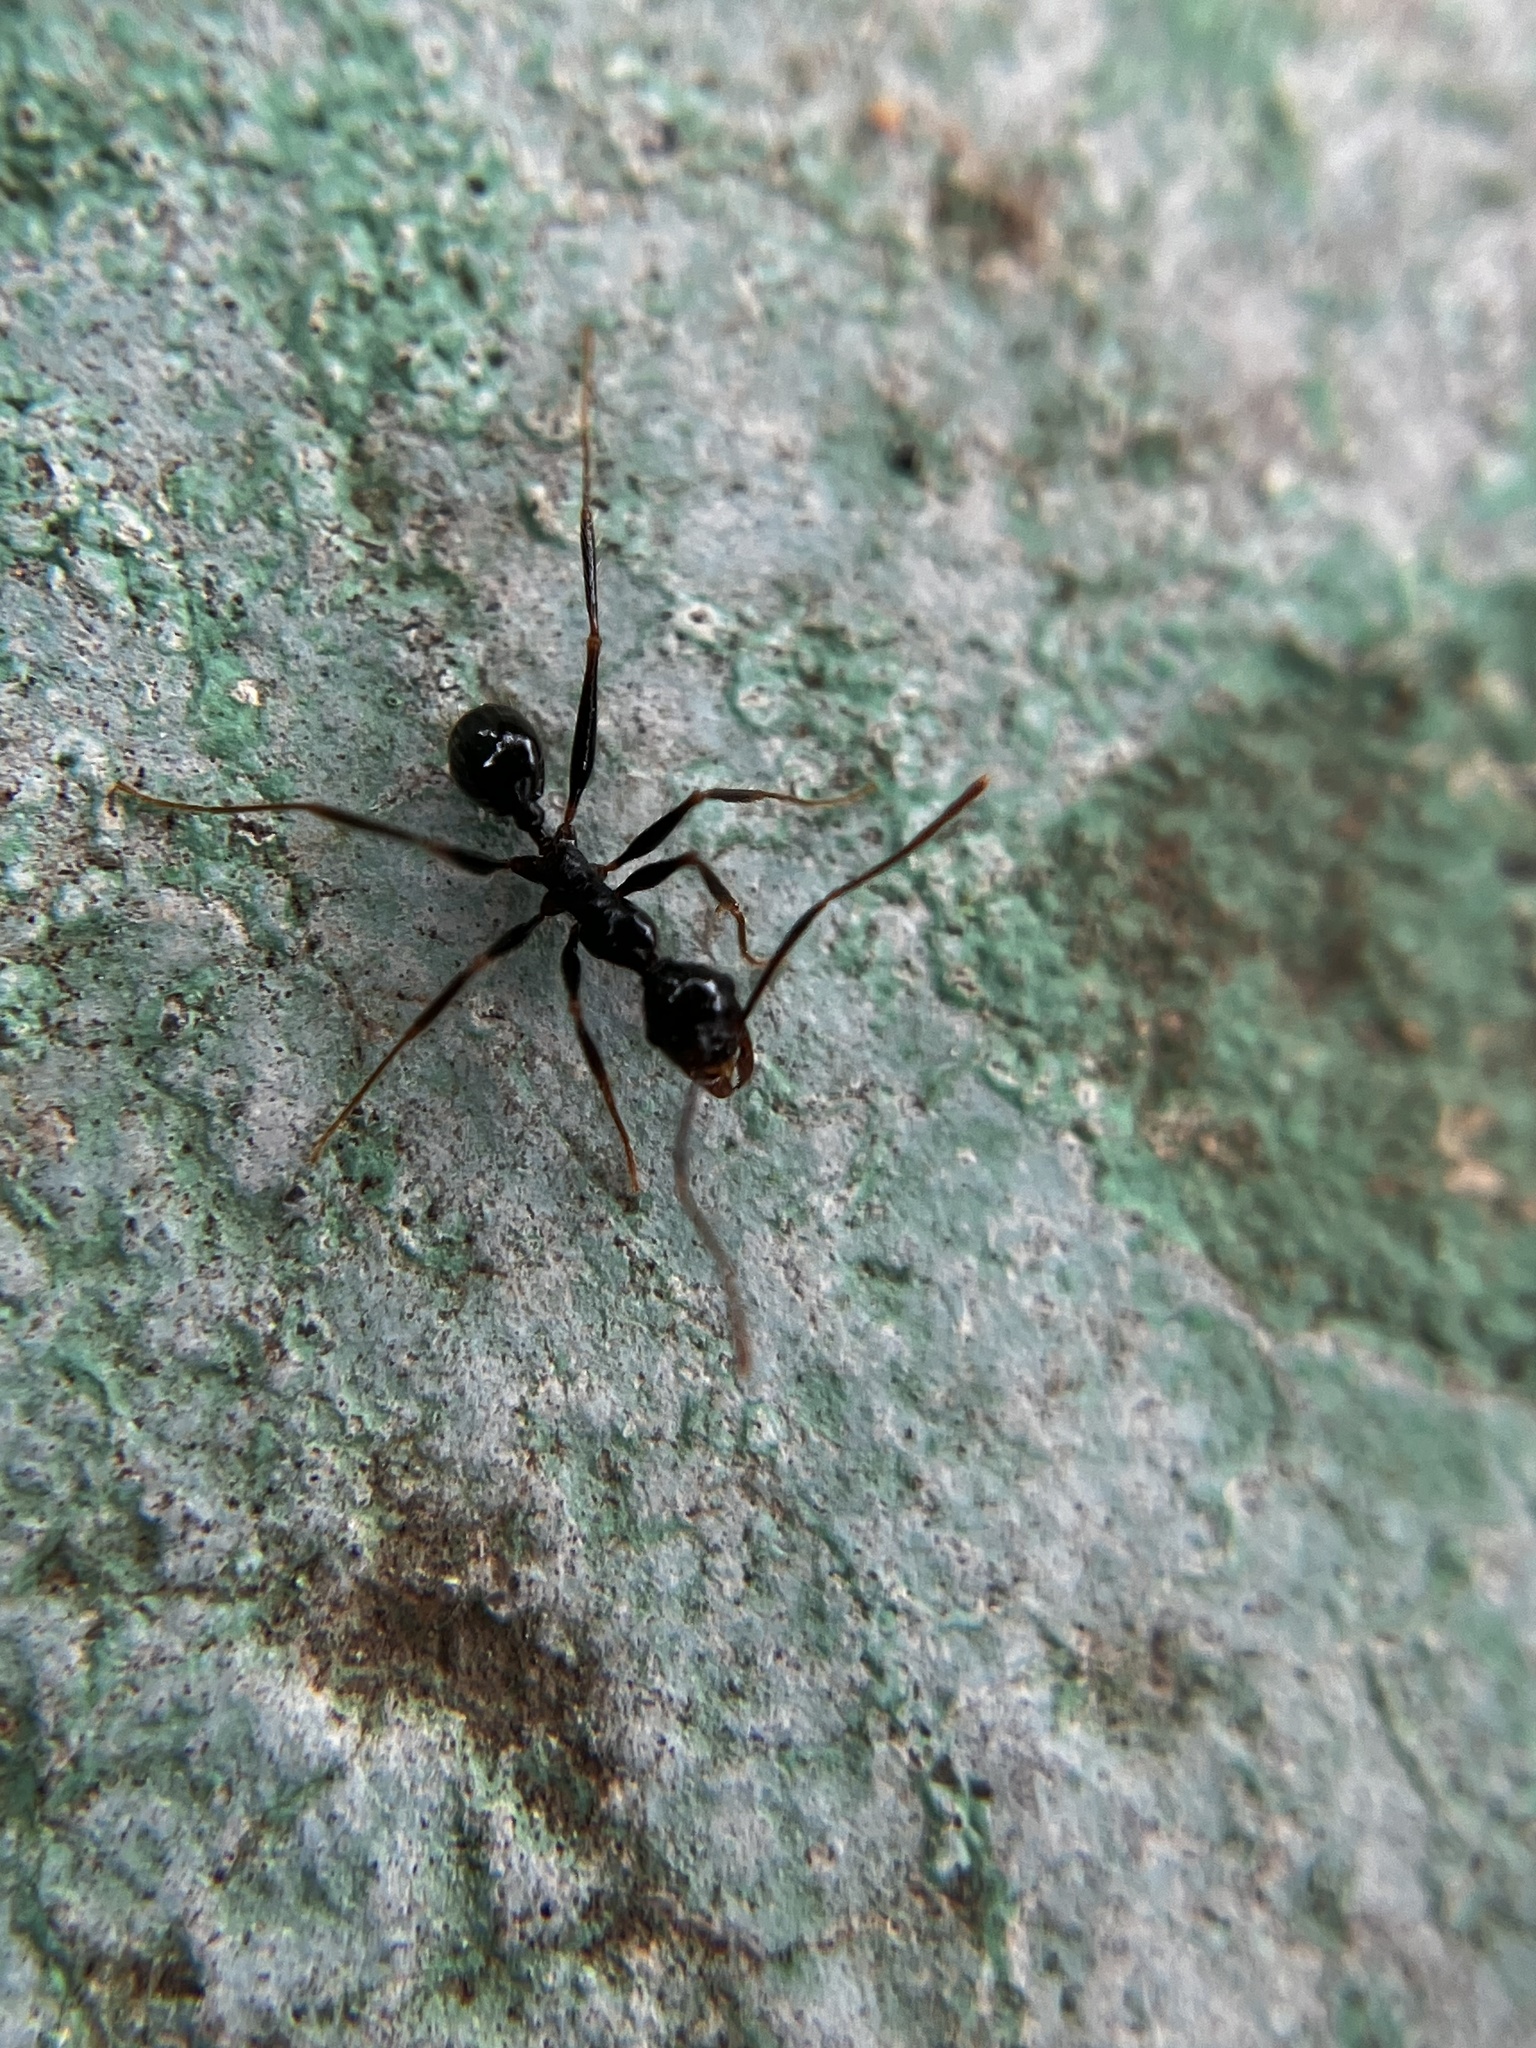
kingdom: Animalia
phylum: Arthropoda
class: Insecta
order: Hymenoptera
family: Formicidae
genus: Pheidole
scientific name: Pheidole latinoda
